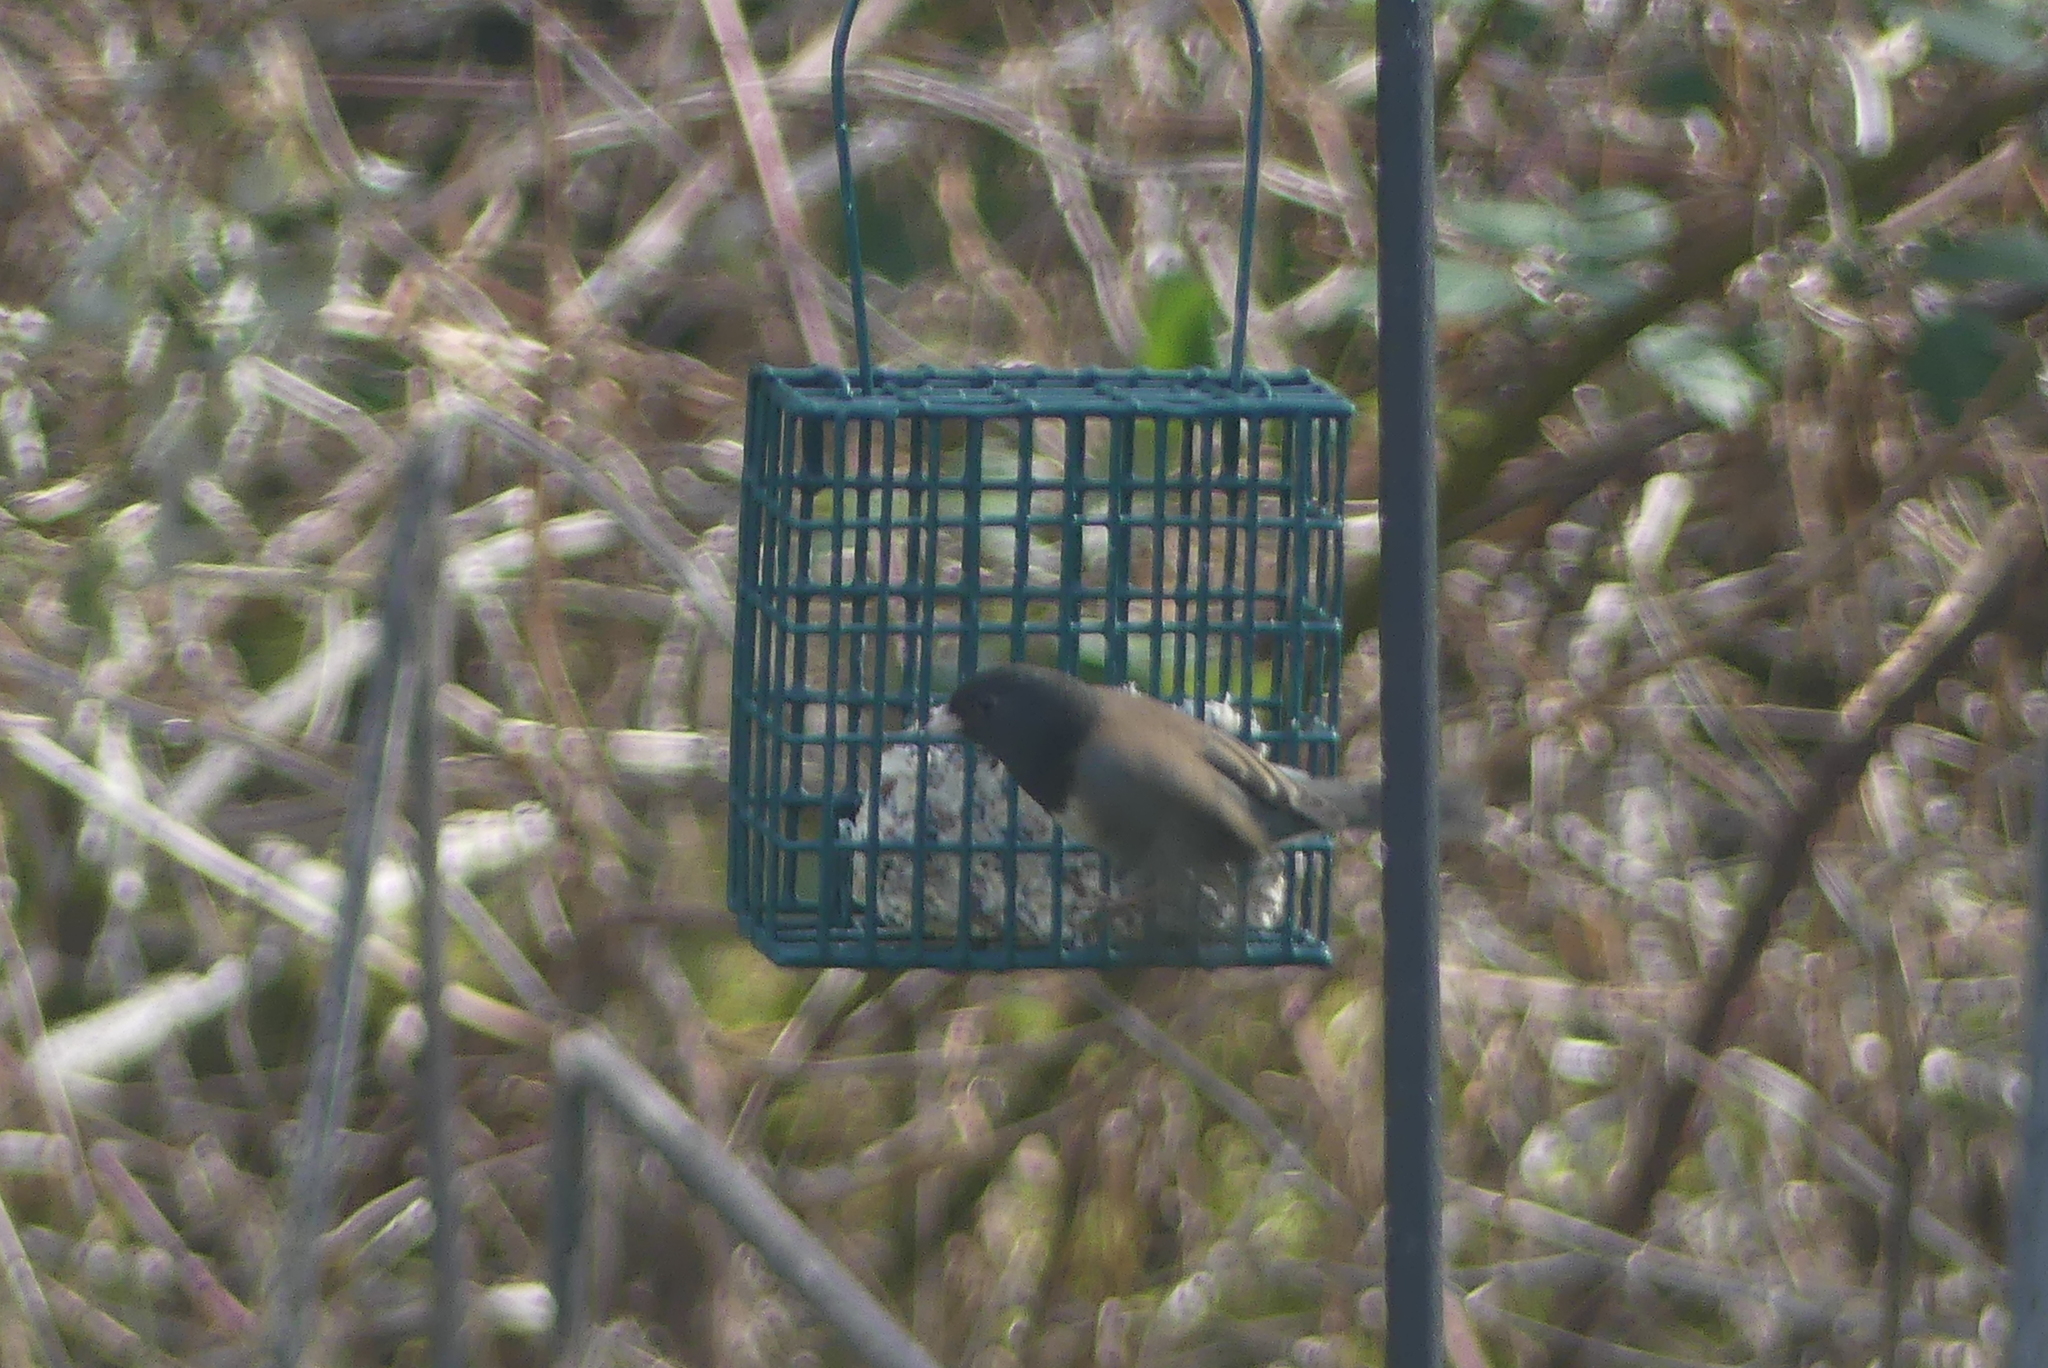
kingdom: Animalia
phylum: Chordata
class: Aves
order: Passeriformes
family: Passerellidae
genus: Junco
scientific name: Junco hyemalis
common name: Dark-eyed junco
